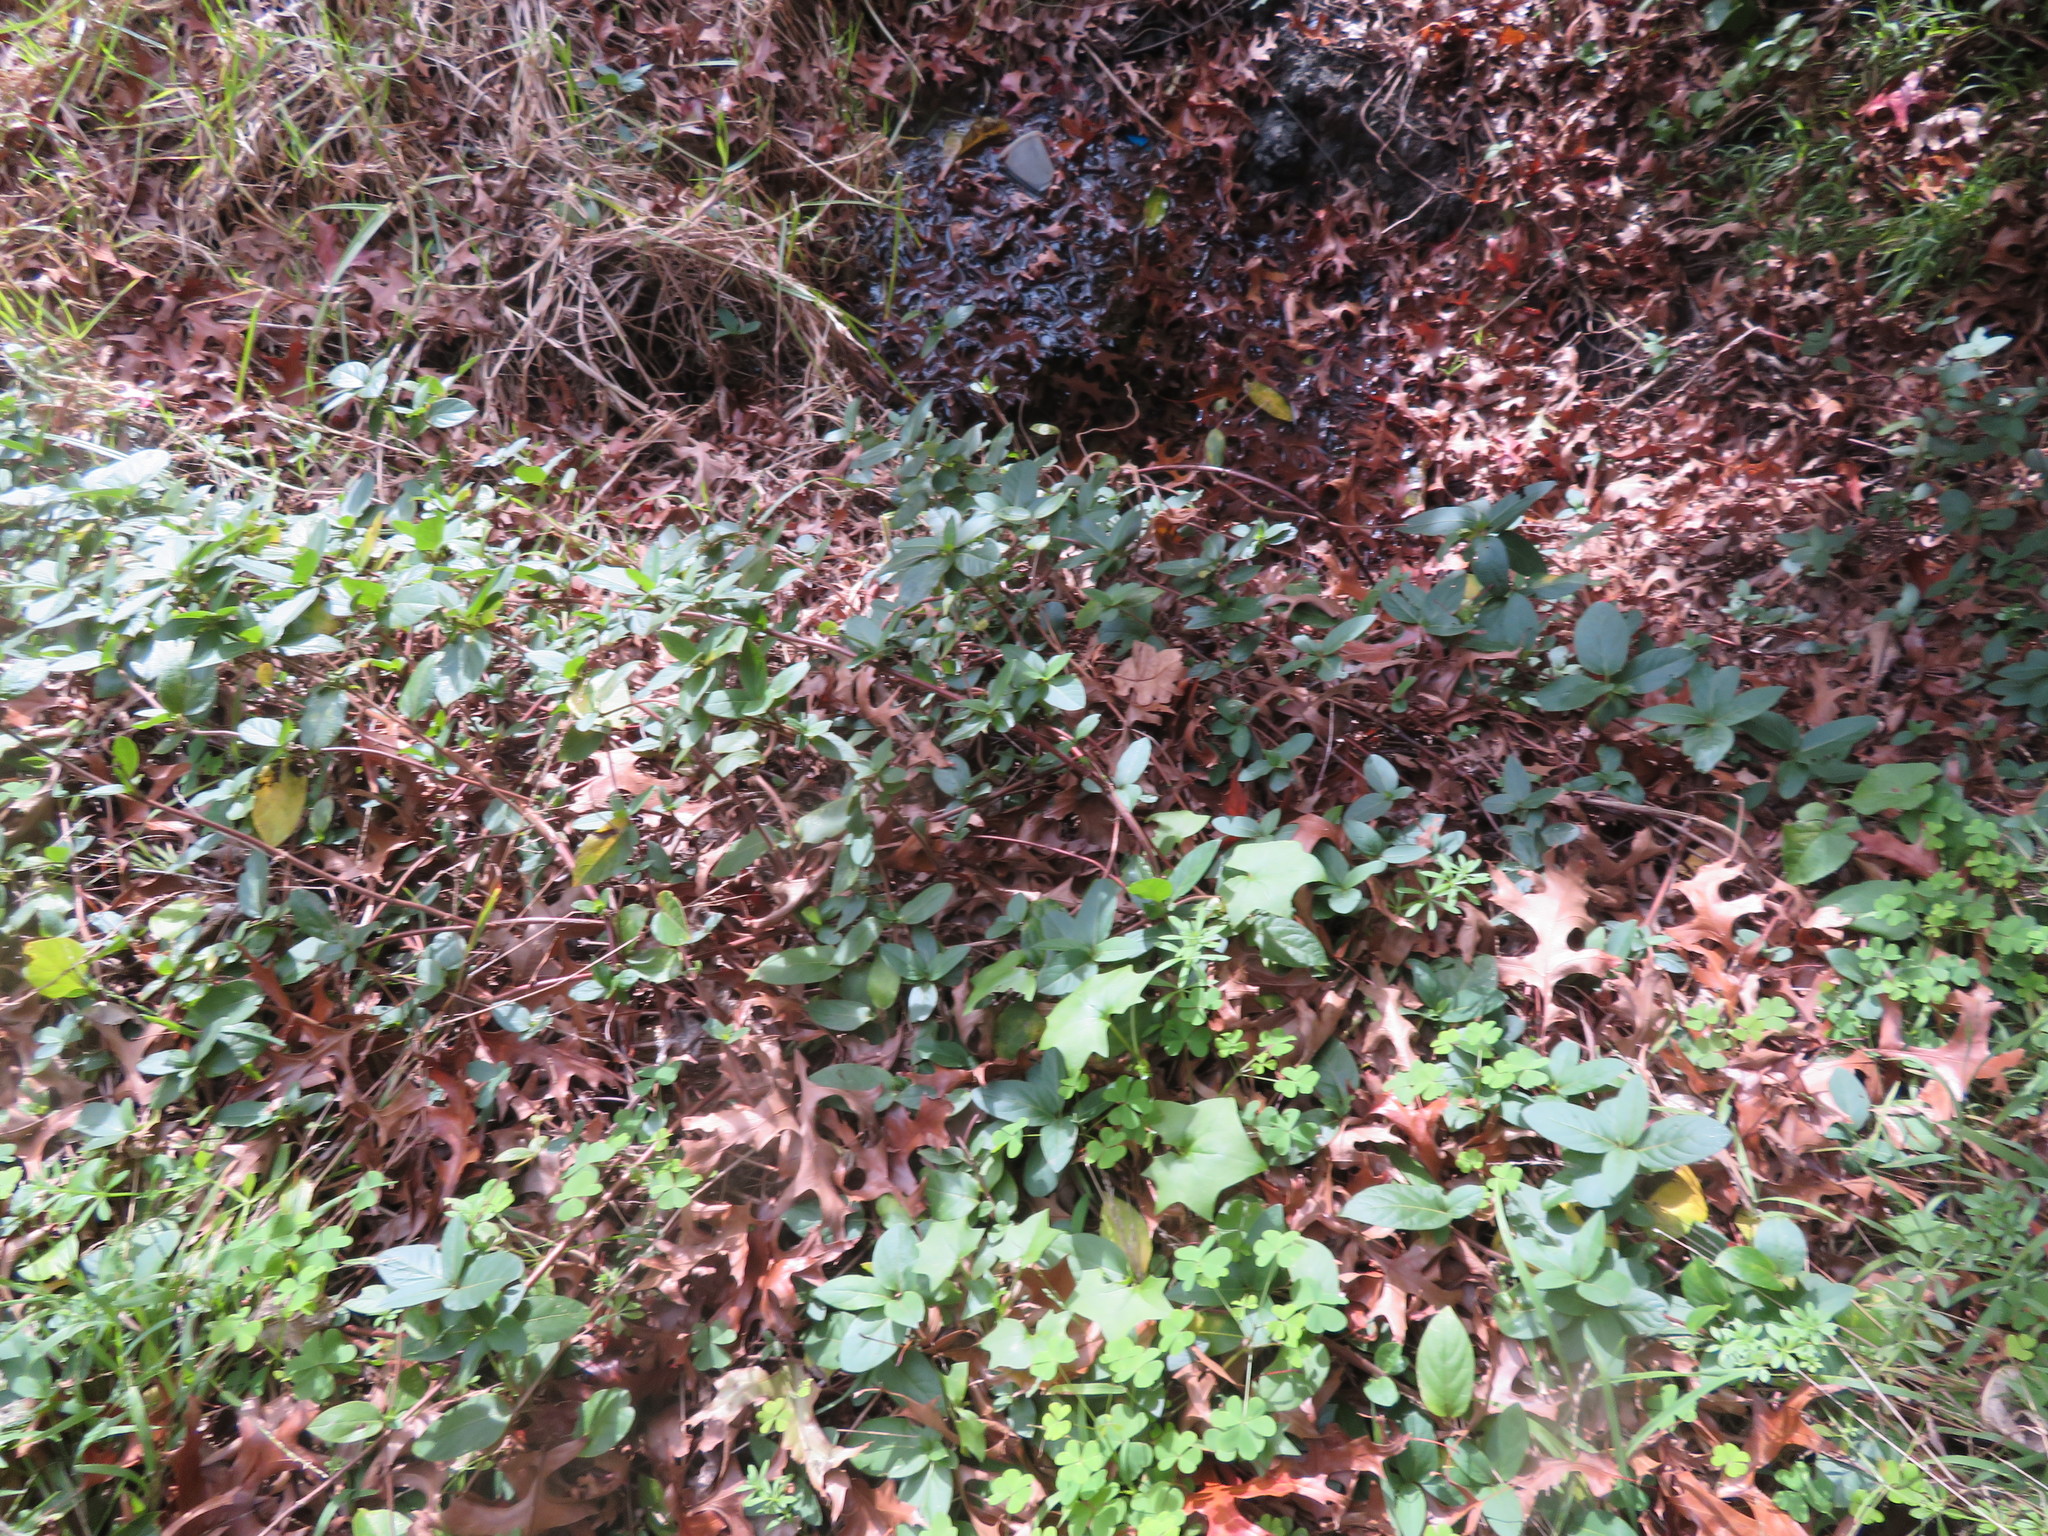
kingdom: Plantae
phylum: Tracheophyta
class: Magnoliopsida
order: Dipsacales
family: Caprifoliaceae
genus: Lonicera
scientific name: Lonicera japonica
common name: Japanese honeysuckle
